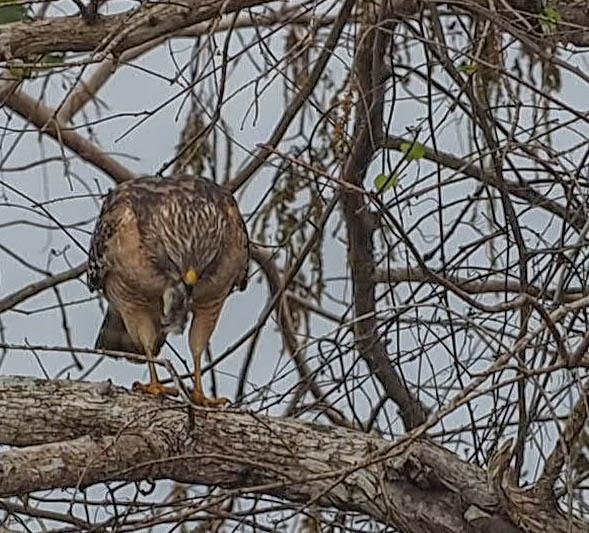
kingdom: Animalia
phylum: Chordata
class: Aves
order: Accipitriformes
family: Accipitridae
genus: Buteo
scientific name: Buteo lineatus
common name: Red-shouldered hawk
